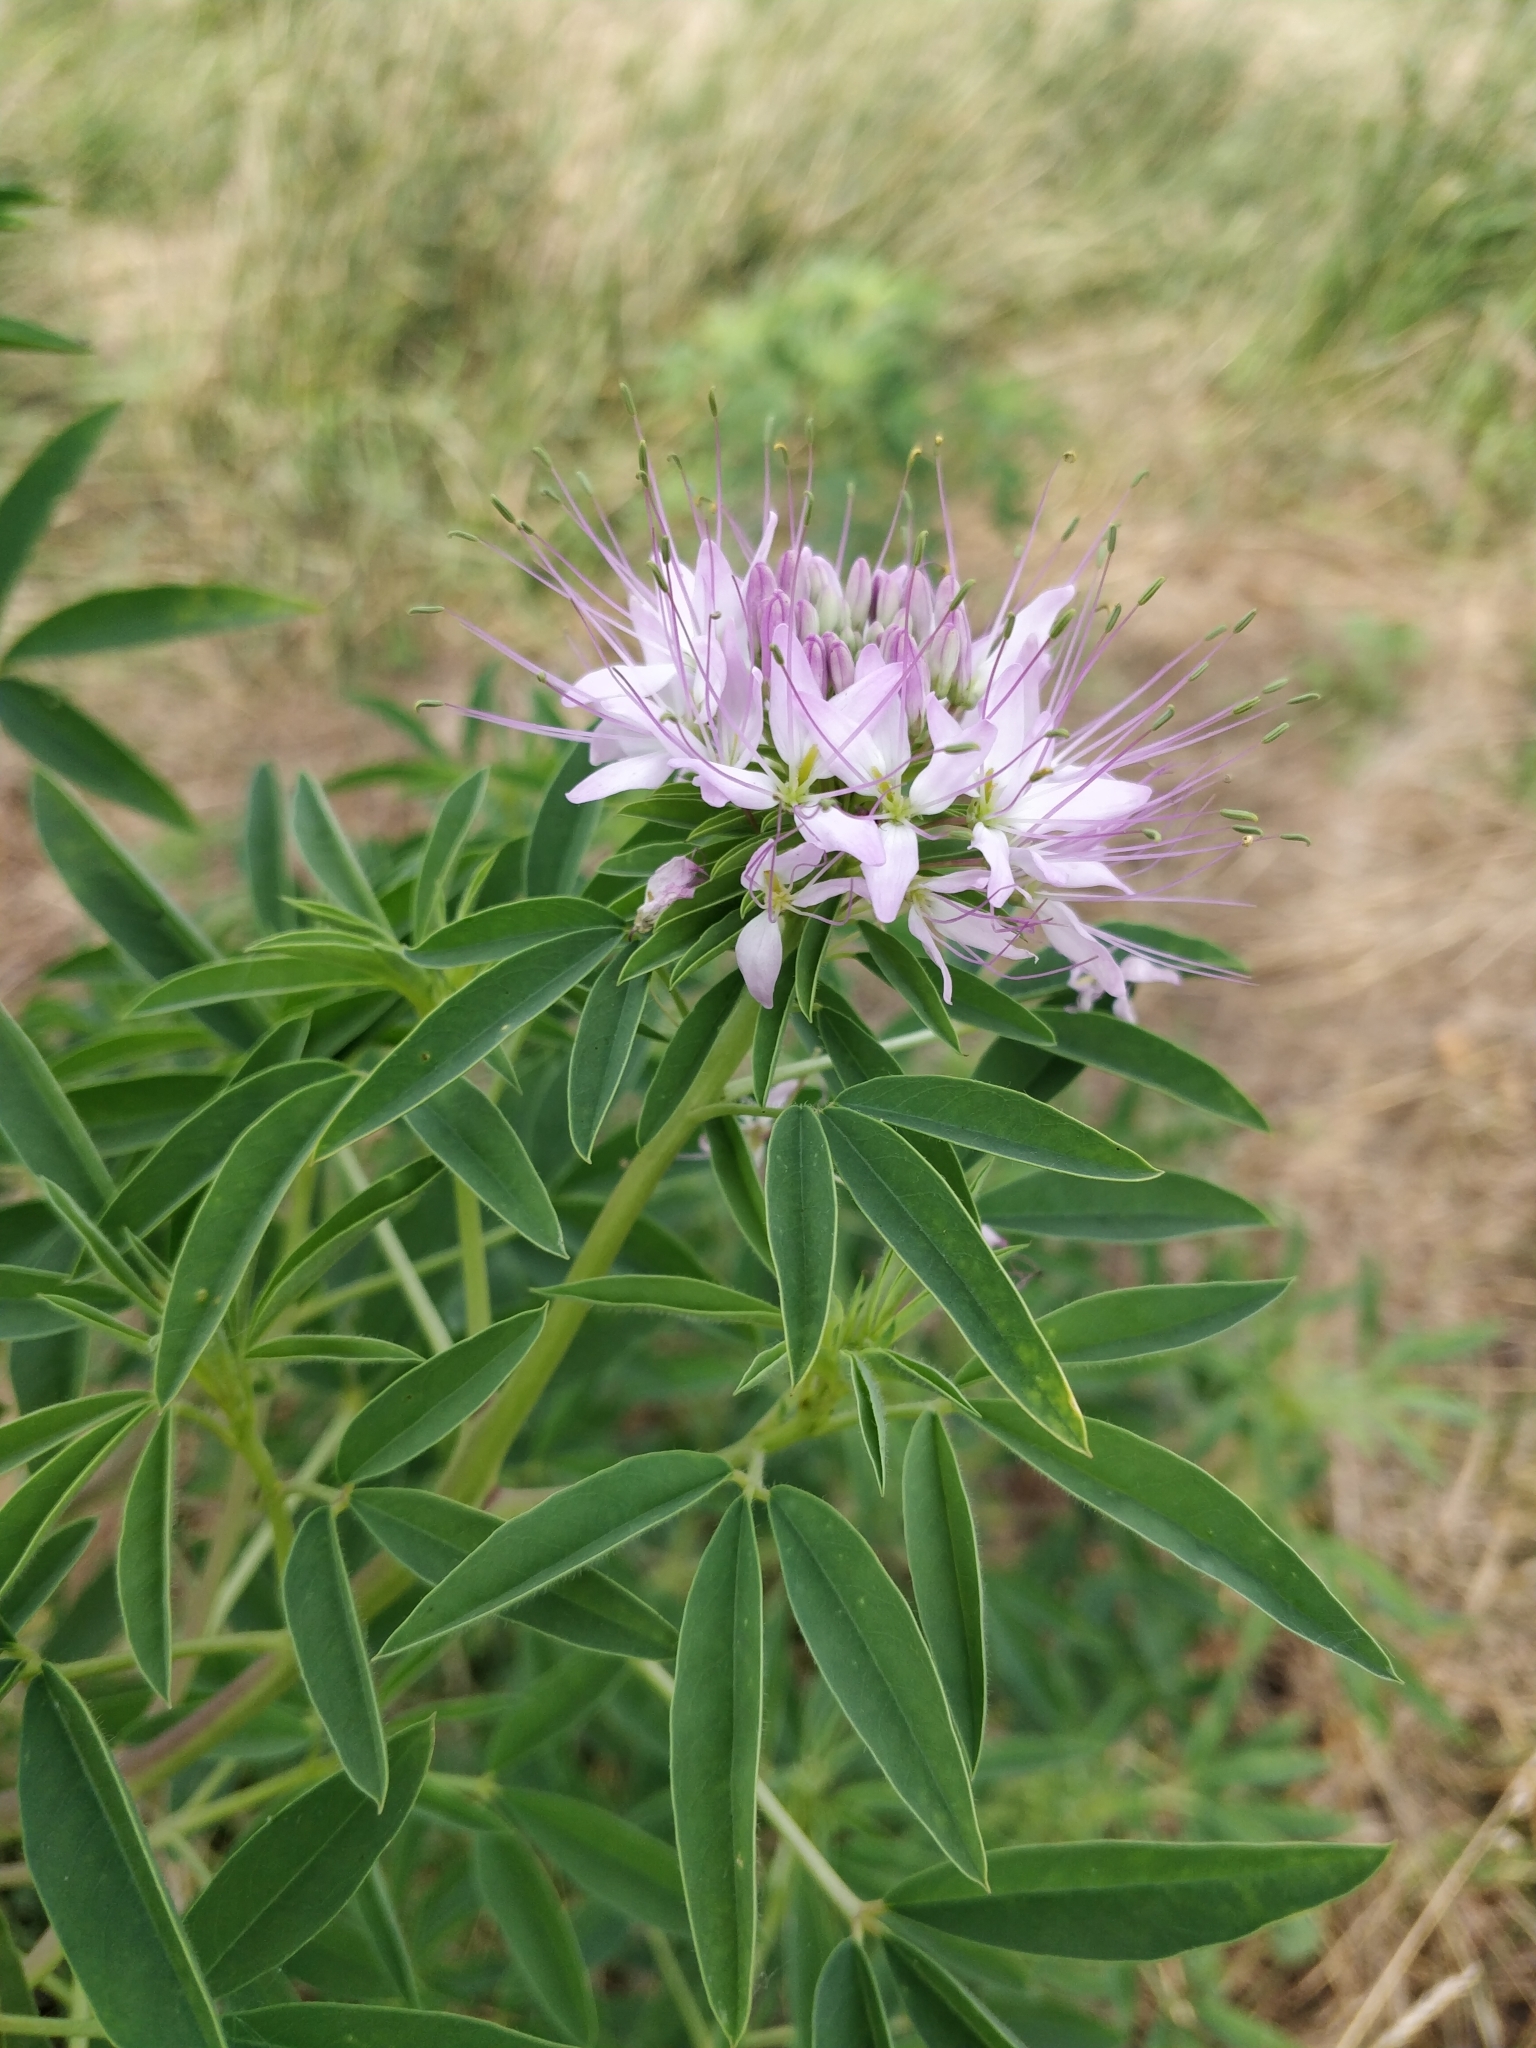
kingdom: Plantae
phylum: Tracheophyta
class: Magnoliopsida
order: Brassicales
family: Cleomaceae
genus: Cleomella
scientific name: Cleomella serrulata
